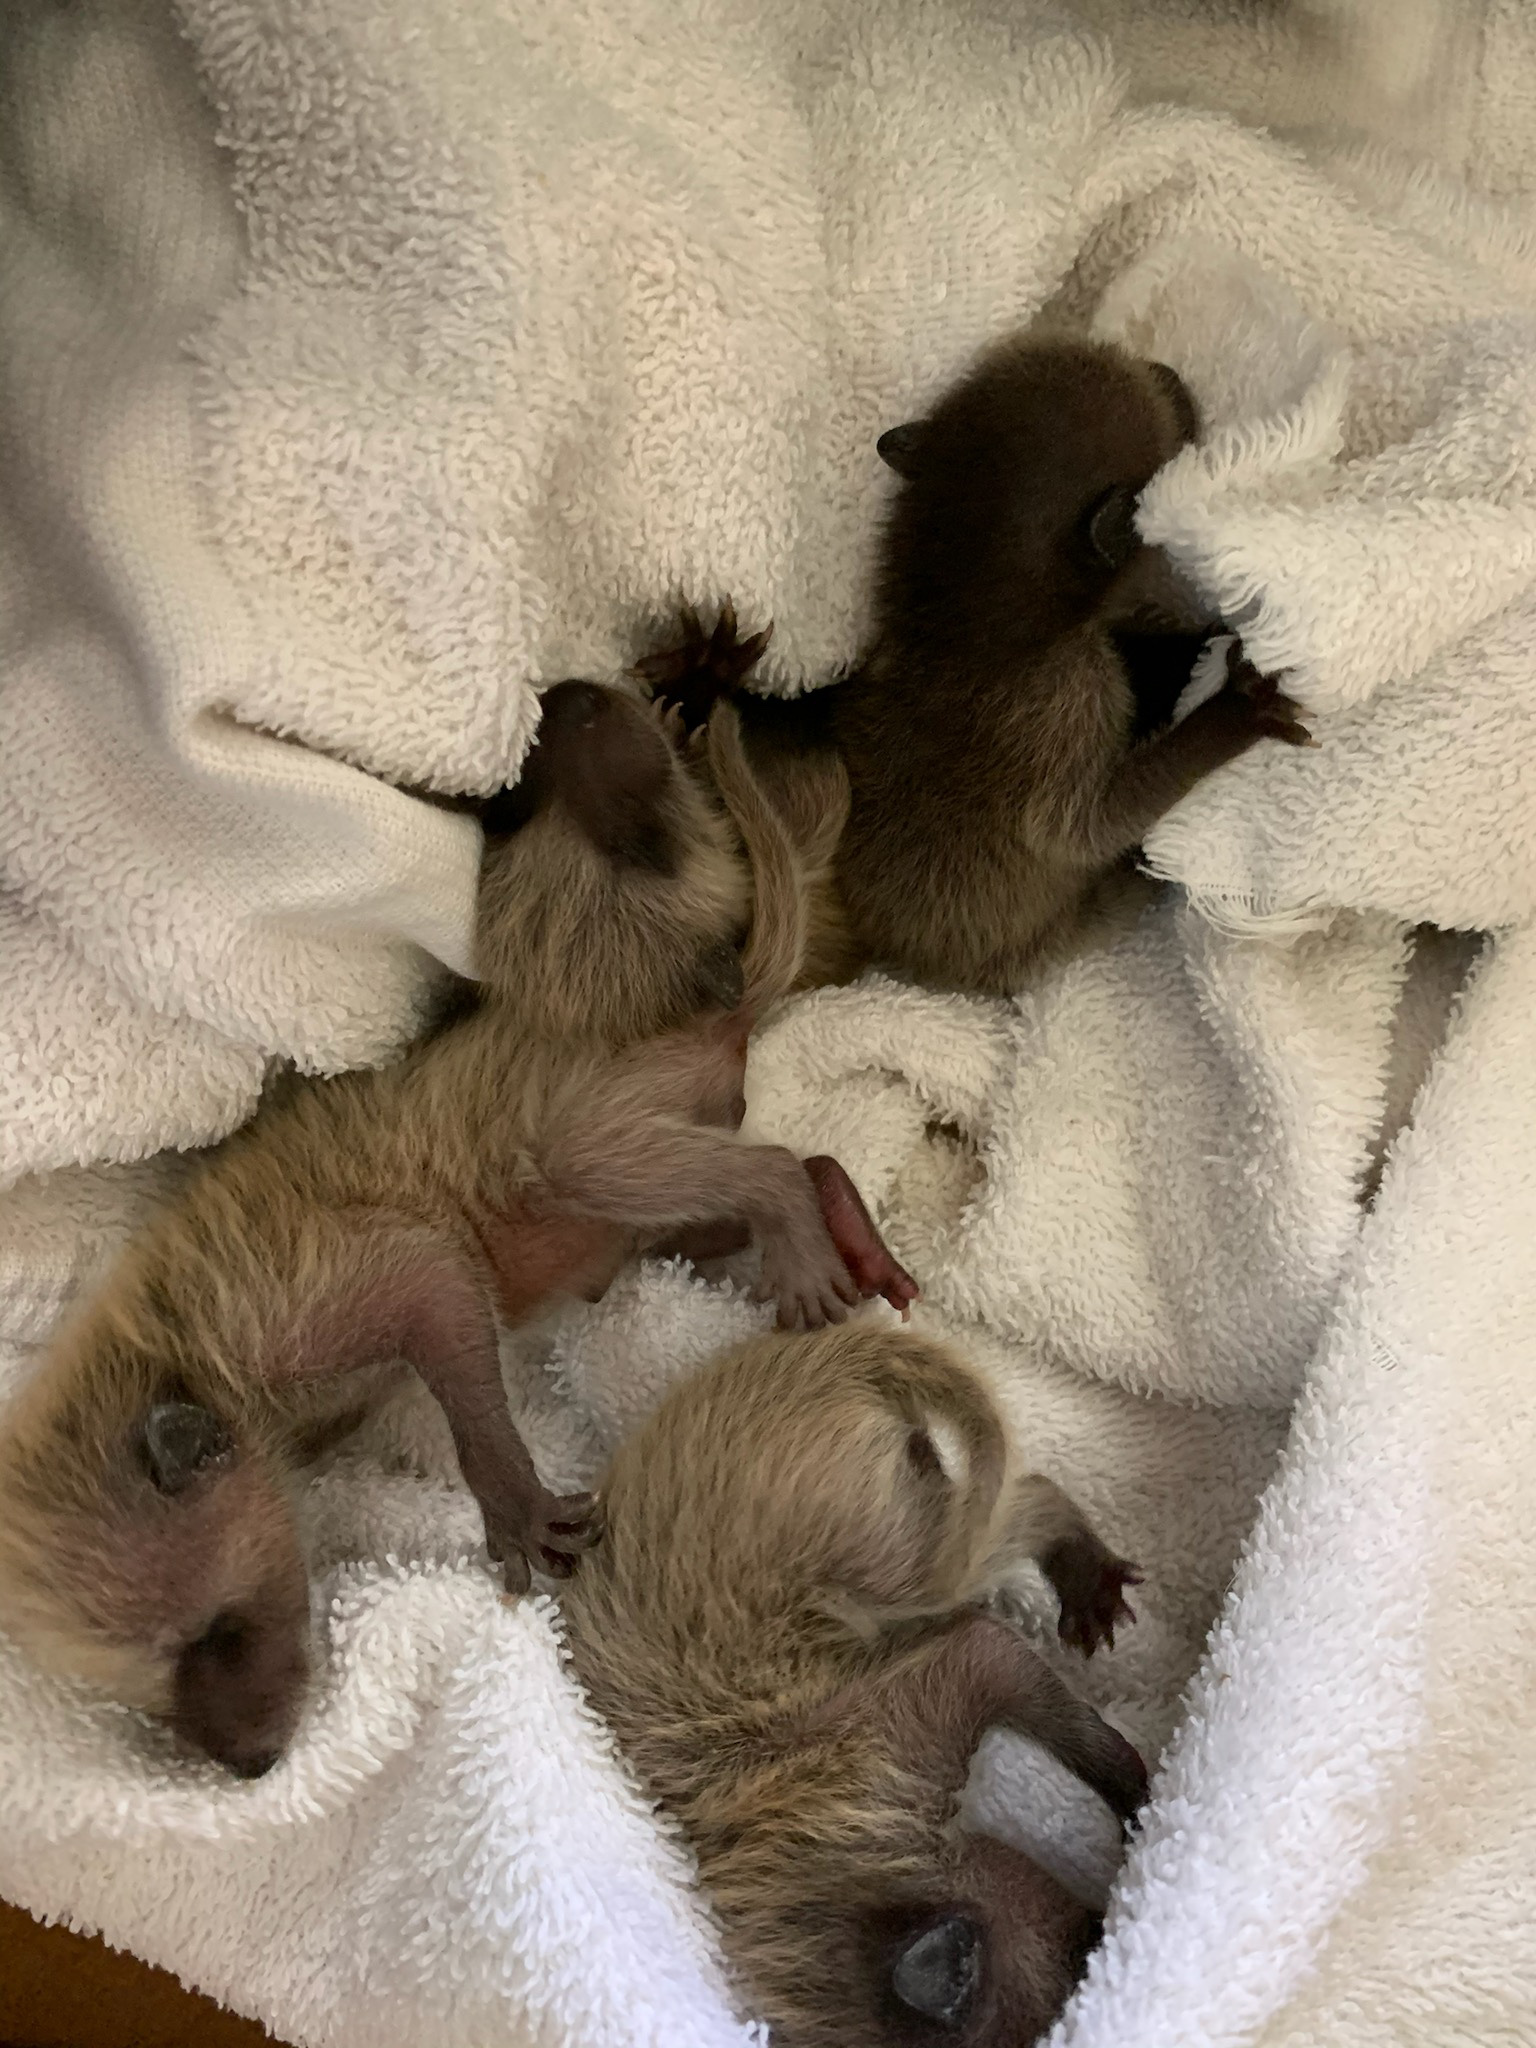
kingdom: Animalia
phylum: Chordata
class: Mammalia
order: Carnivora
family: Procyonidae
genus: Procyon
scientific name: Procyon lotor
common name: Raccoon
